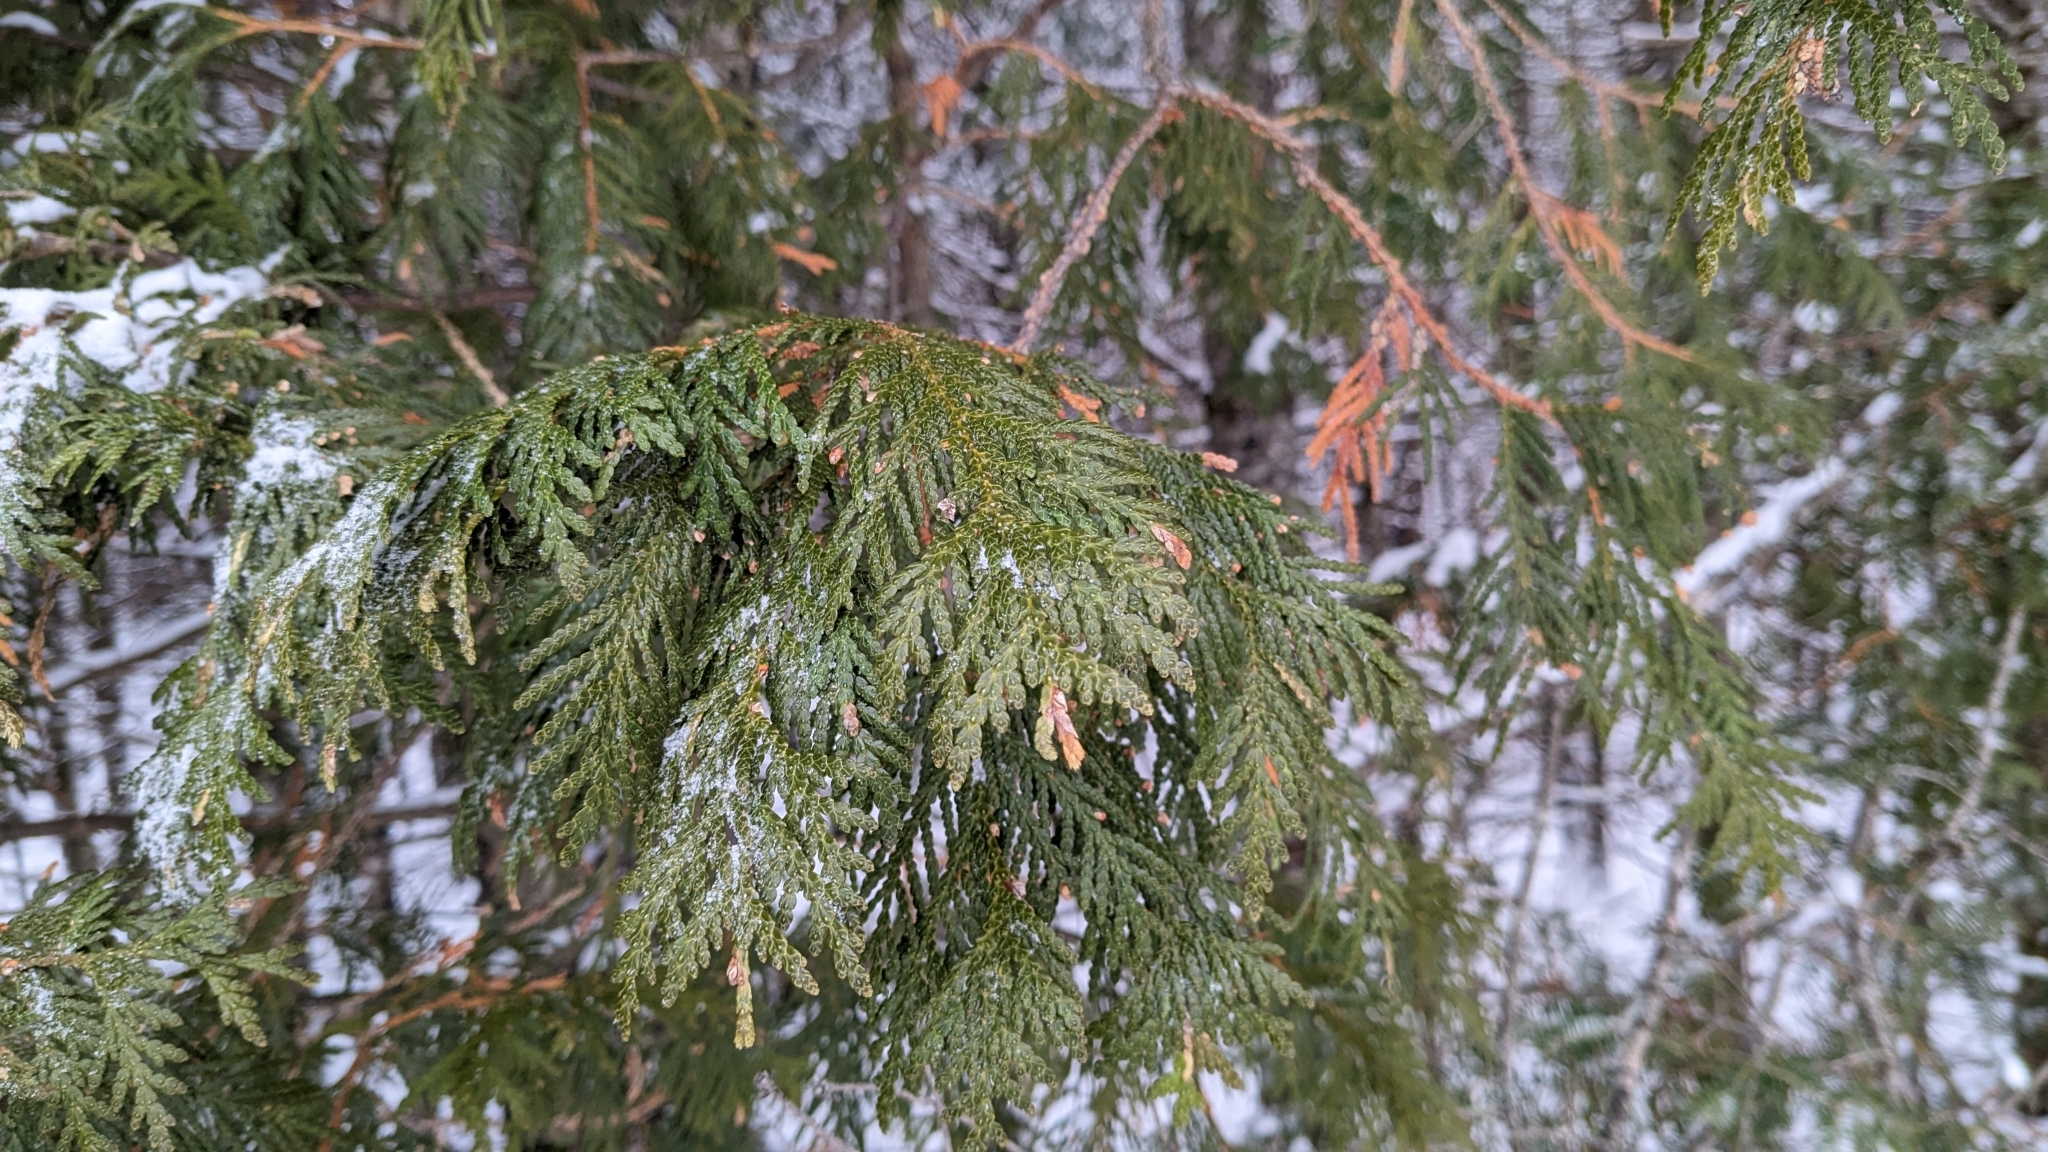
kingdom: Plantae
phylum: Tracheophyta
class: Pinopsida
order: Pinales
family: Cupressaceae
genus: Thuja
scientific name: Thuja occidentalis
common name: Northern white-cedar
